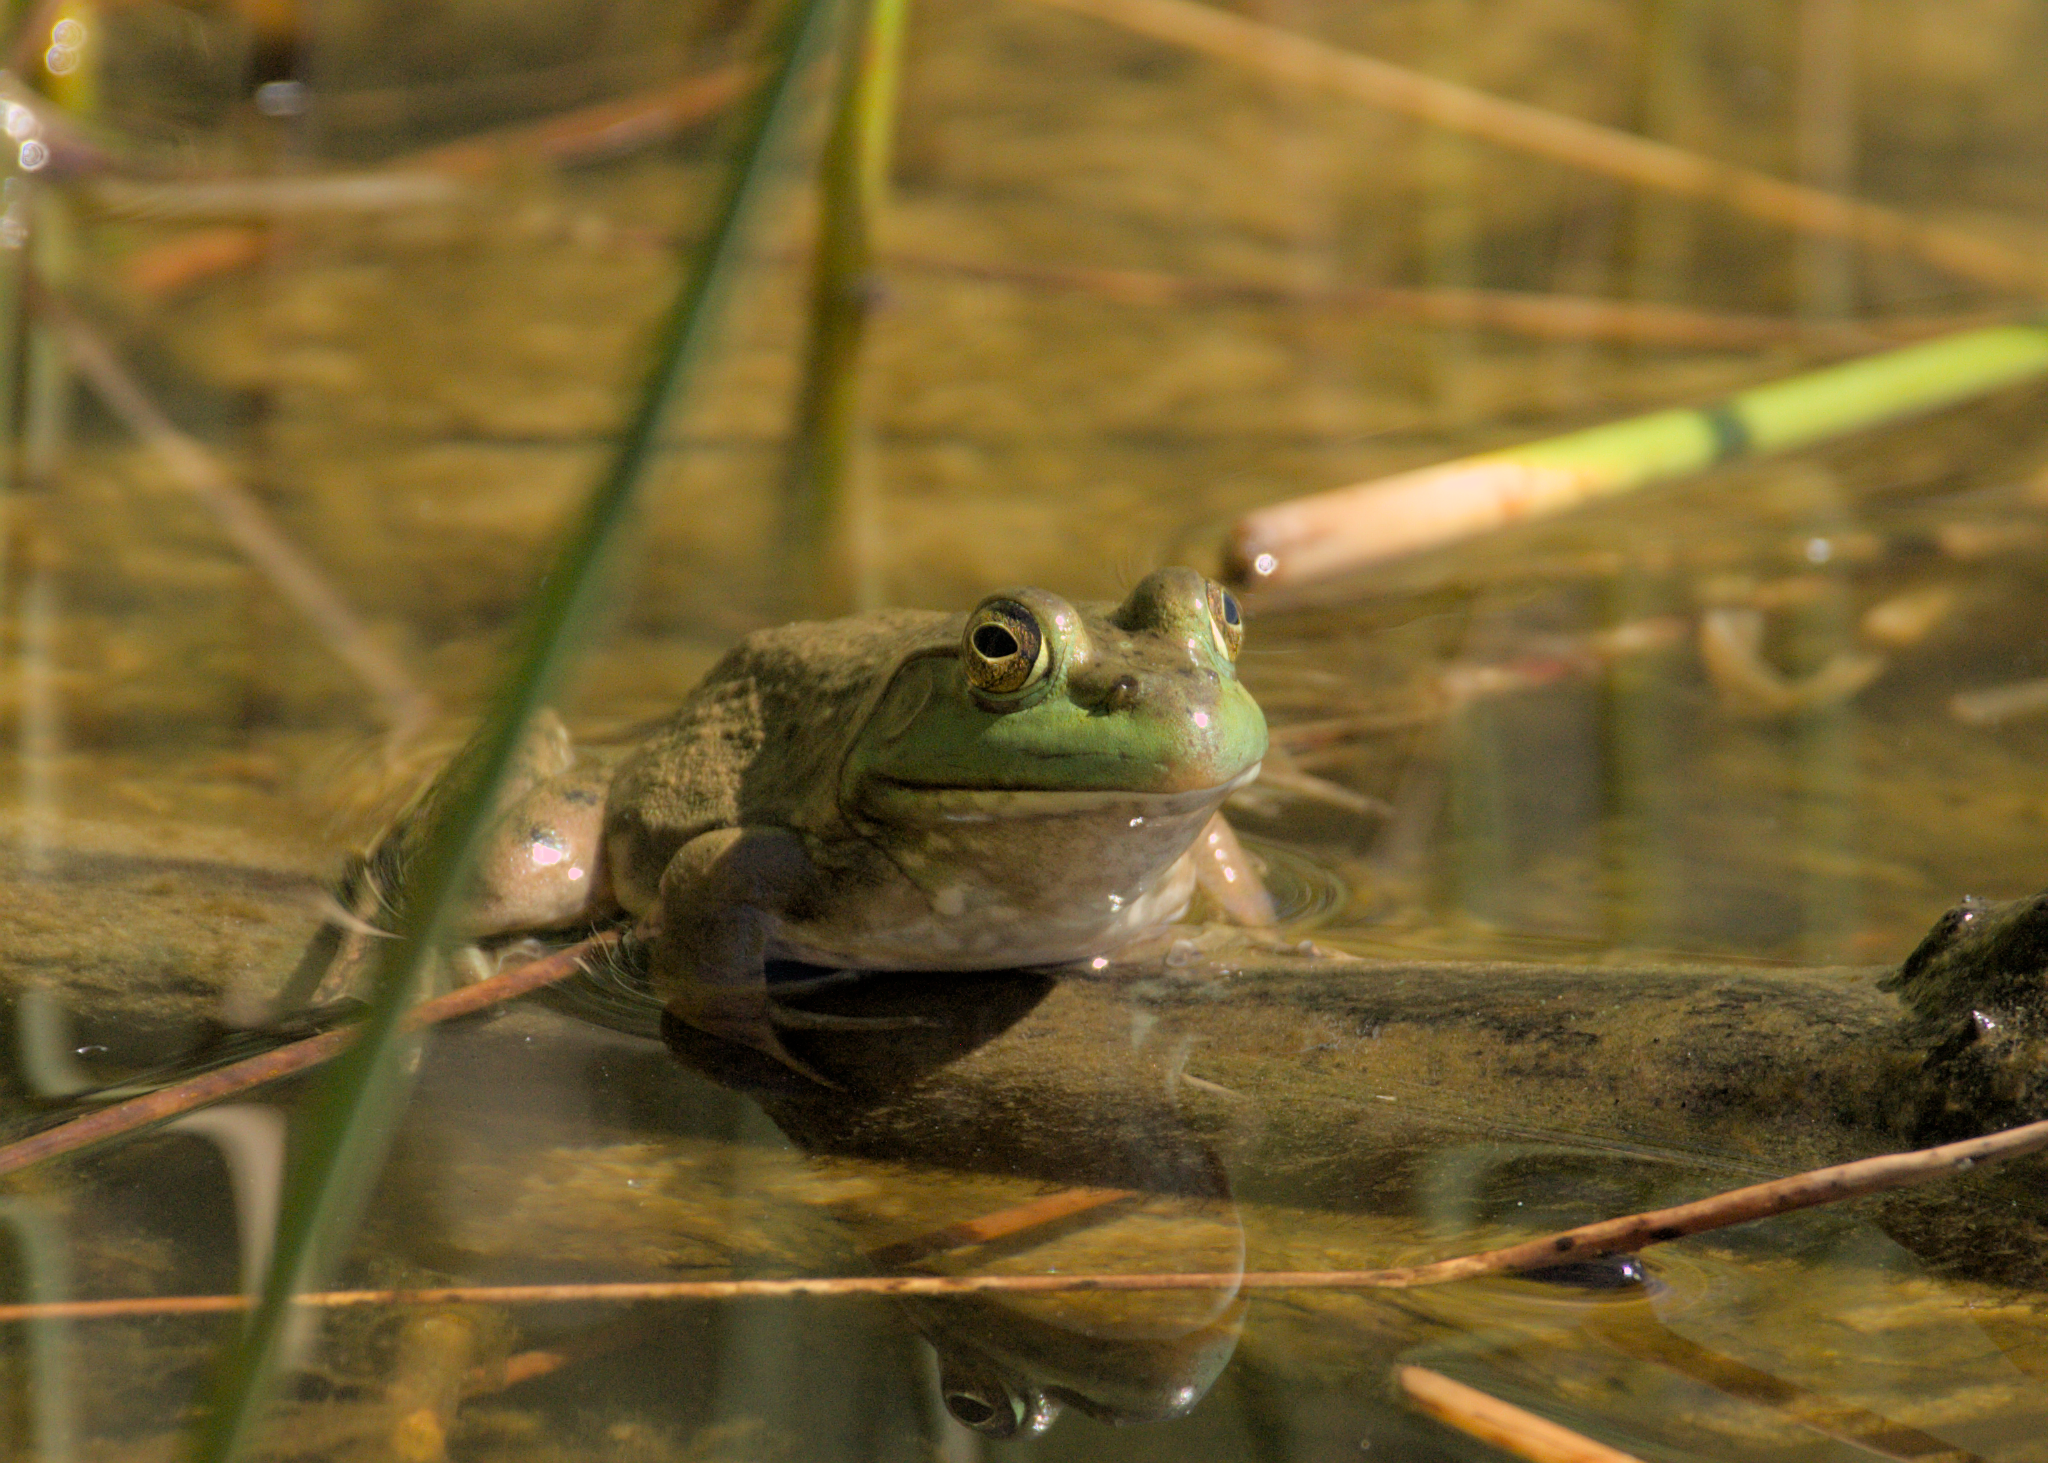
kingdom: Animalia
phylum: Chordata
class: Amphibia
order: Anura
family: Ranidae
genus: Lithobates
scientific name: Lithobates catesbeianus
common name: American bullfrog
